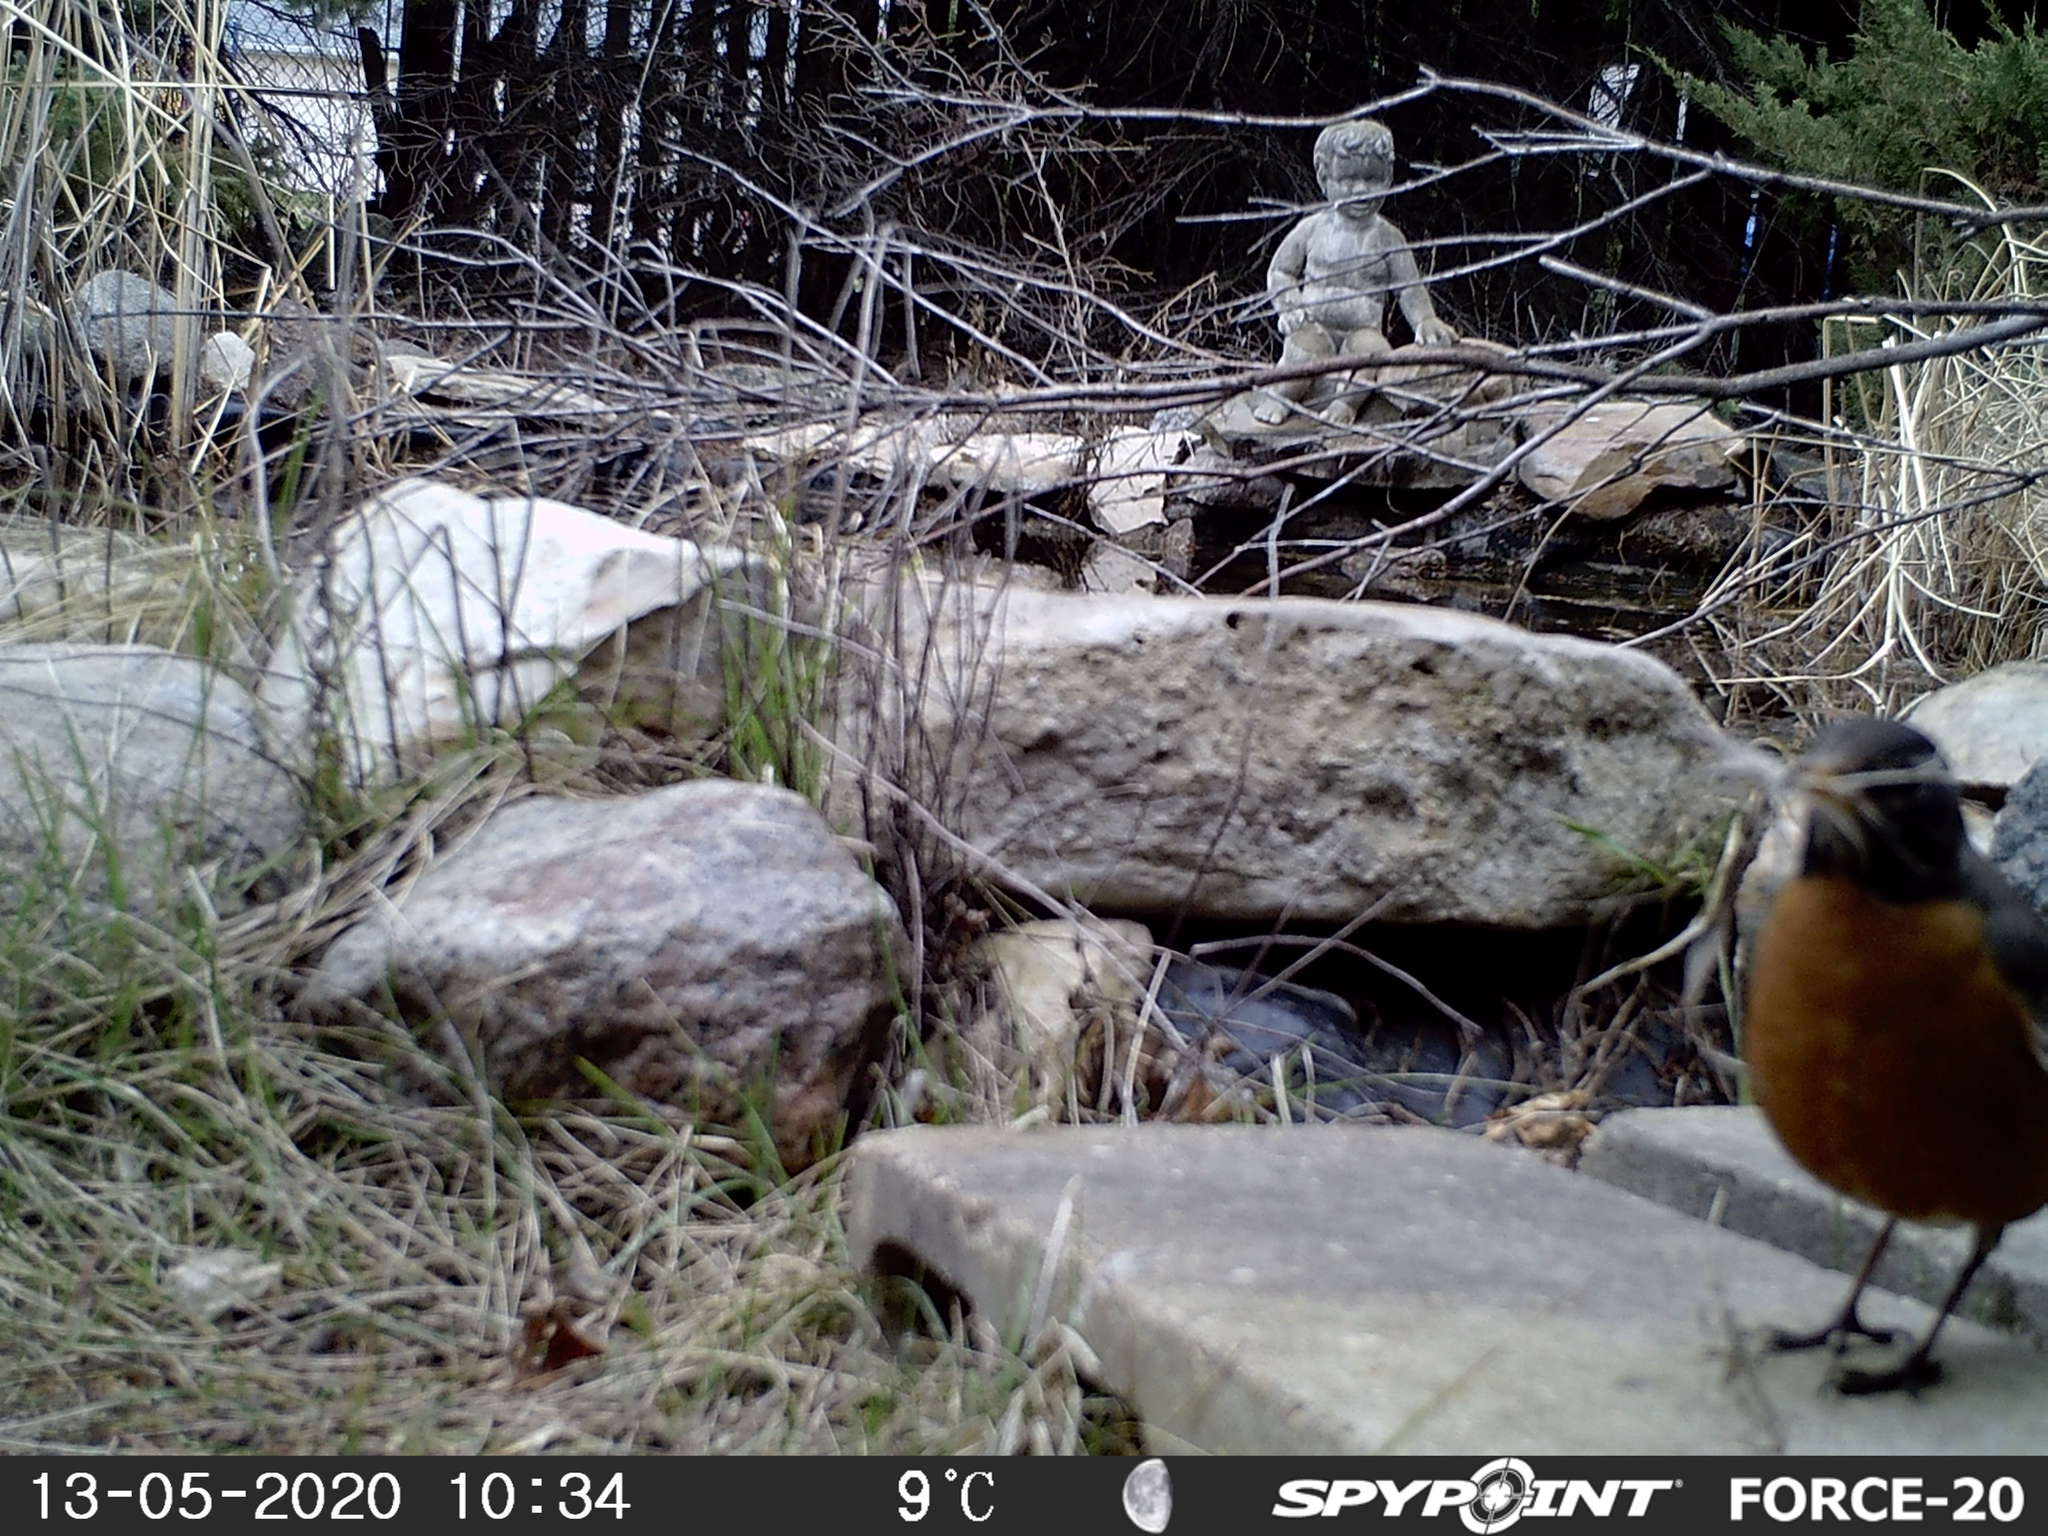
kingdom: Animalia
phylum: Chordata
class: Aves
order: Passeriformes
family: Turdidae
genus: Turdus
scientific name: Turdus migratorius
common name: American robin
